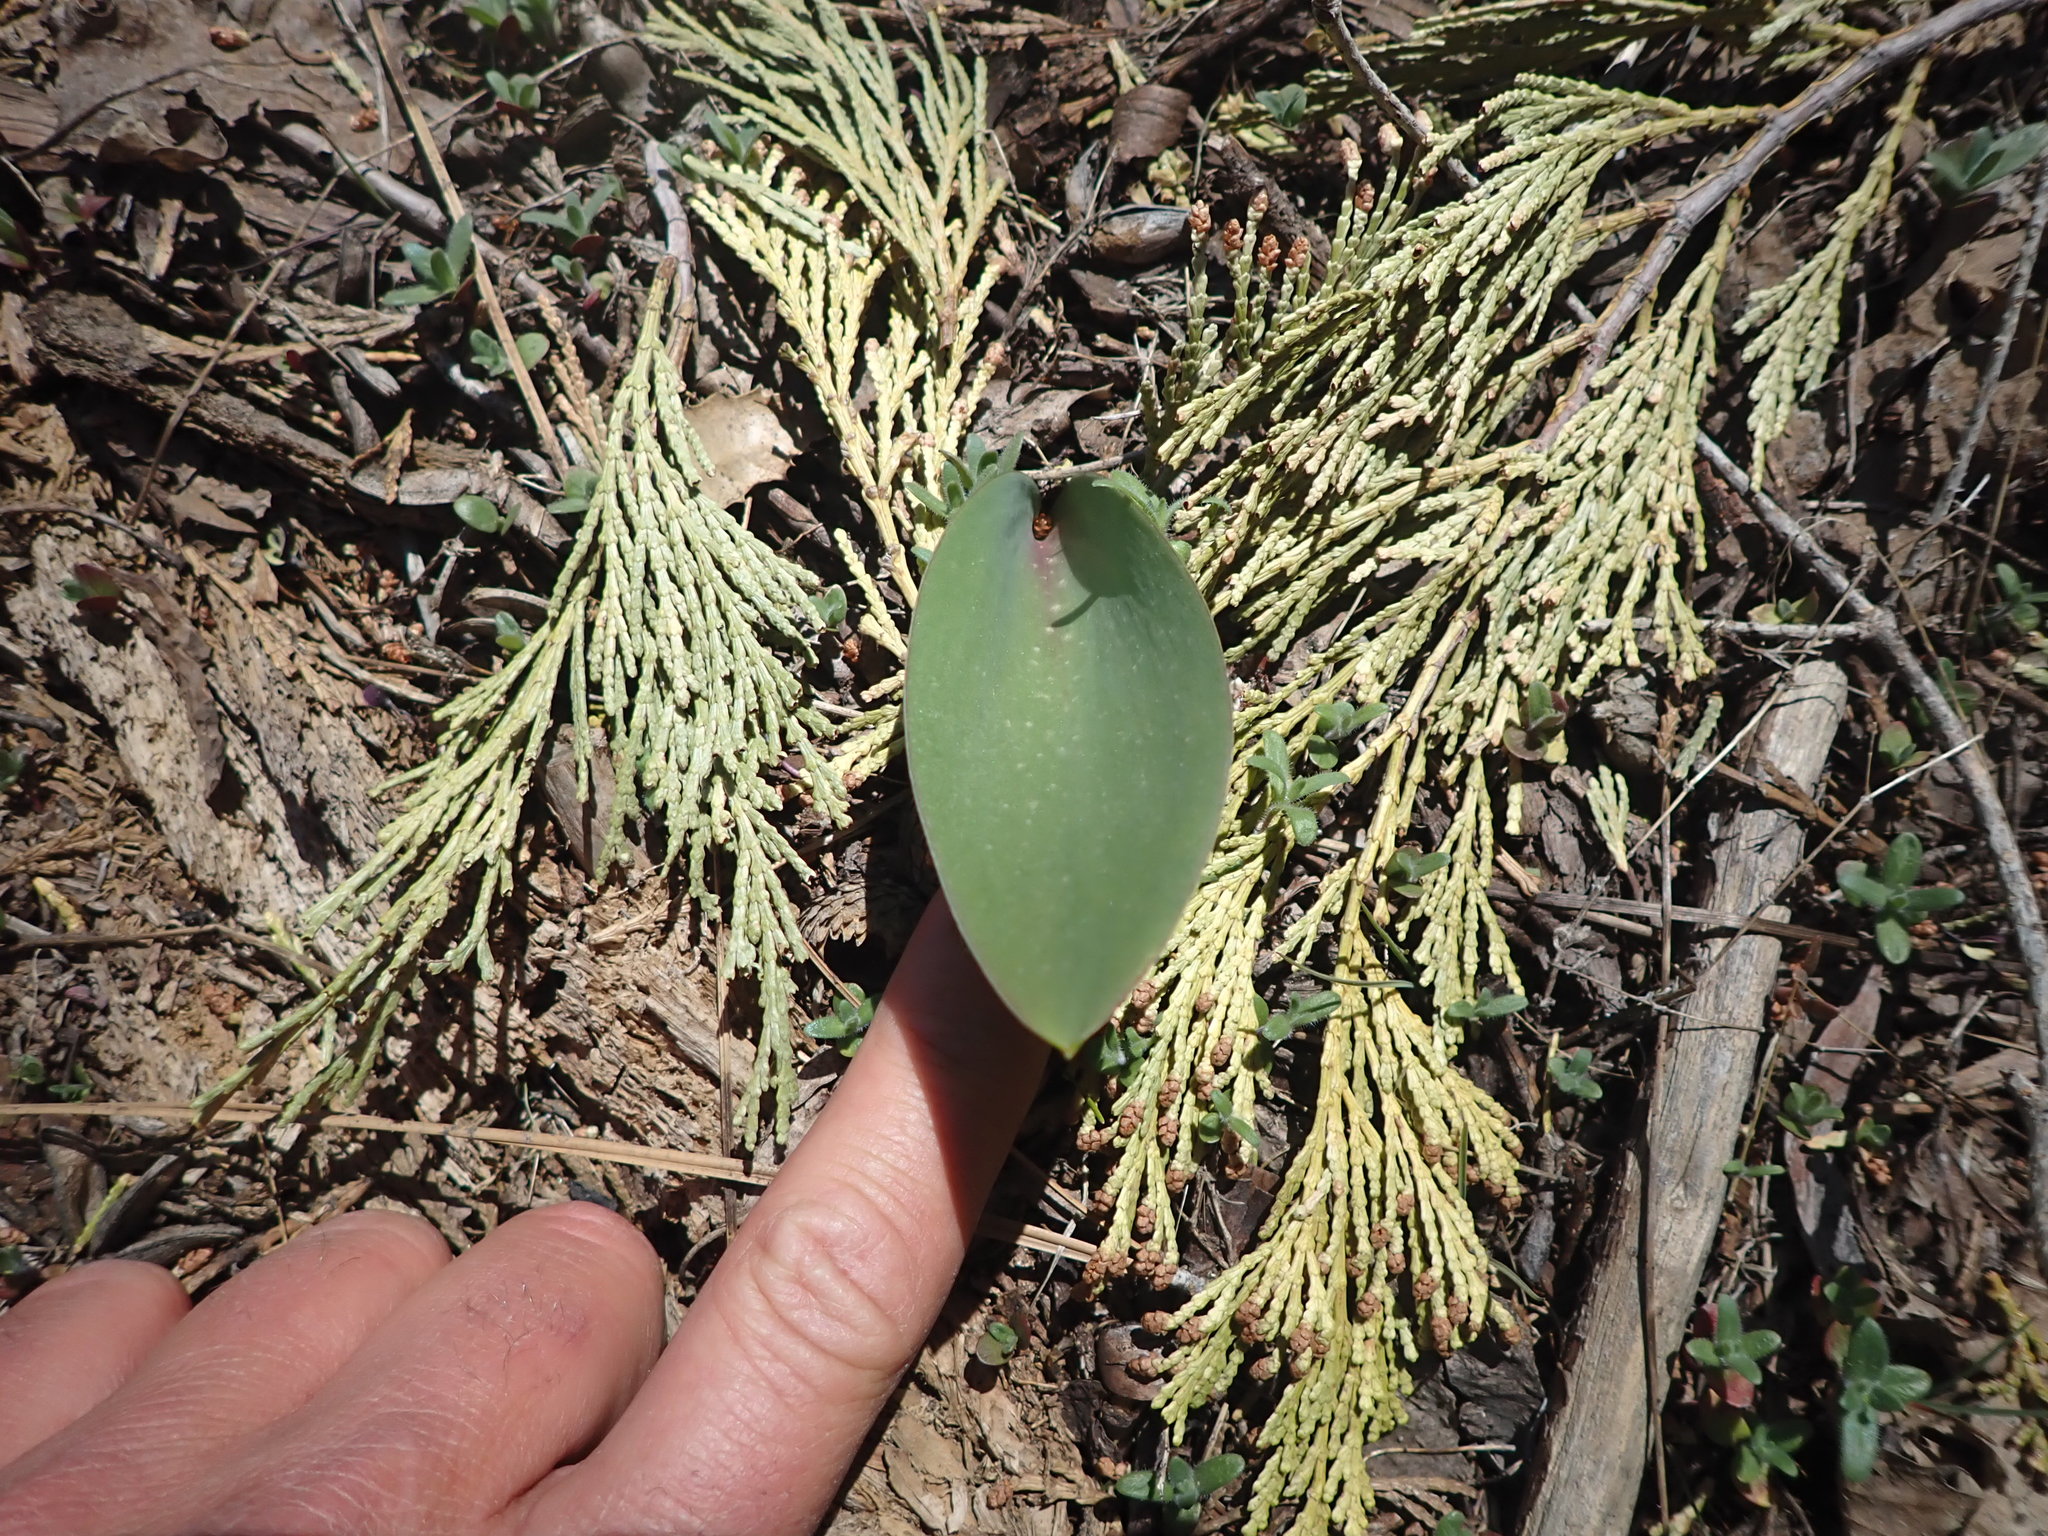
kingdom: Plantae
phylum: Tracheophyta
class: Liliopsida
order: Liliales
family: Liliaceae
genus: Fritillaria
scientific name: Fritillaria brandegeei
